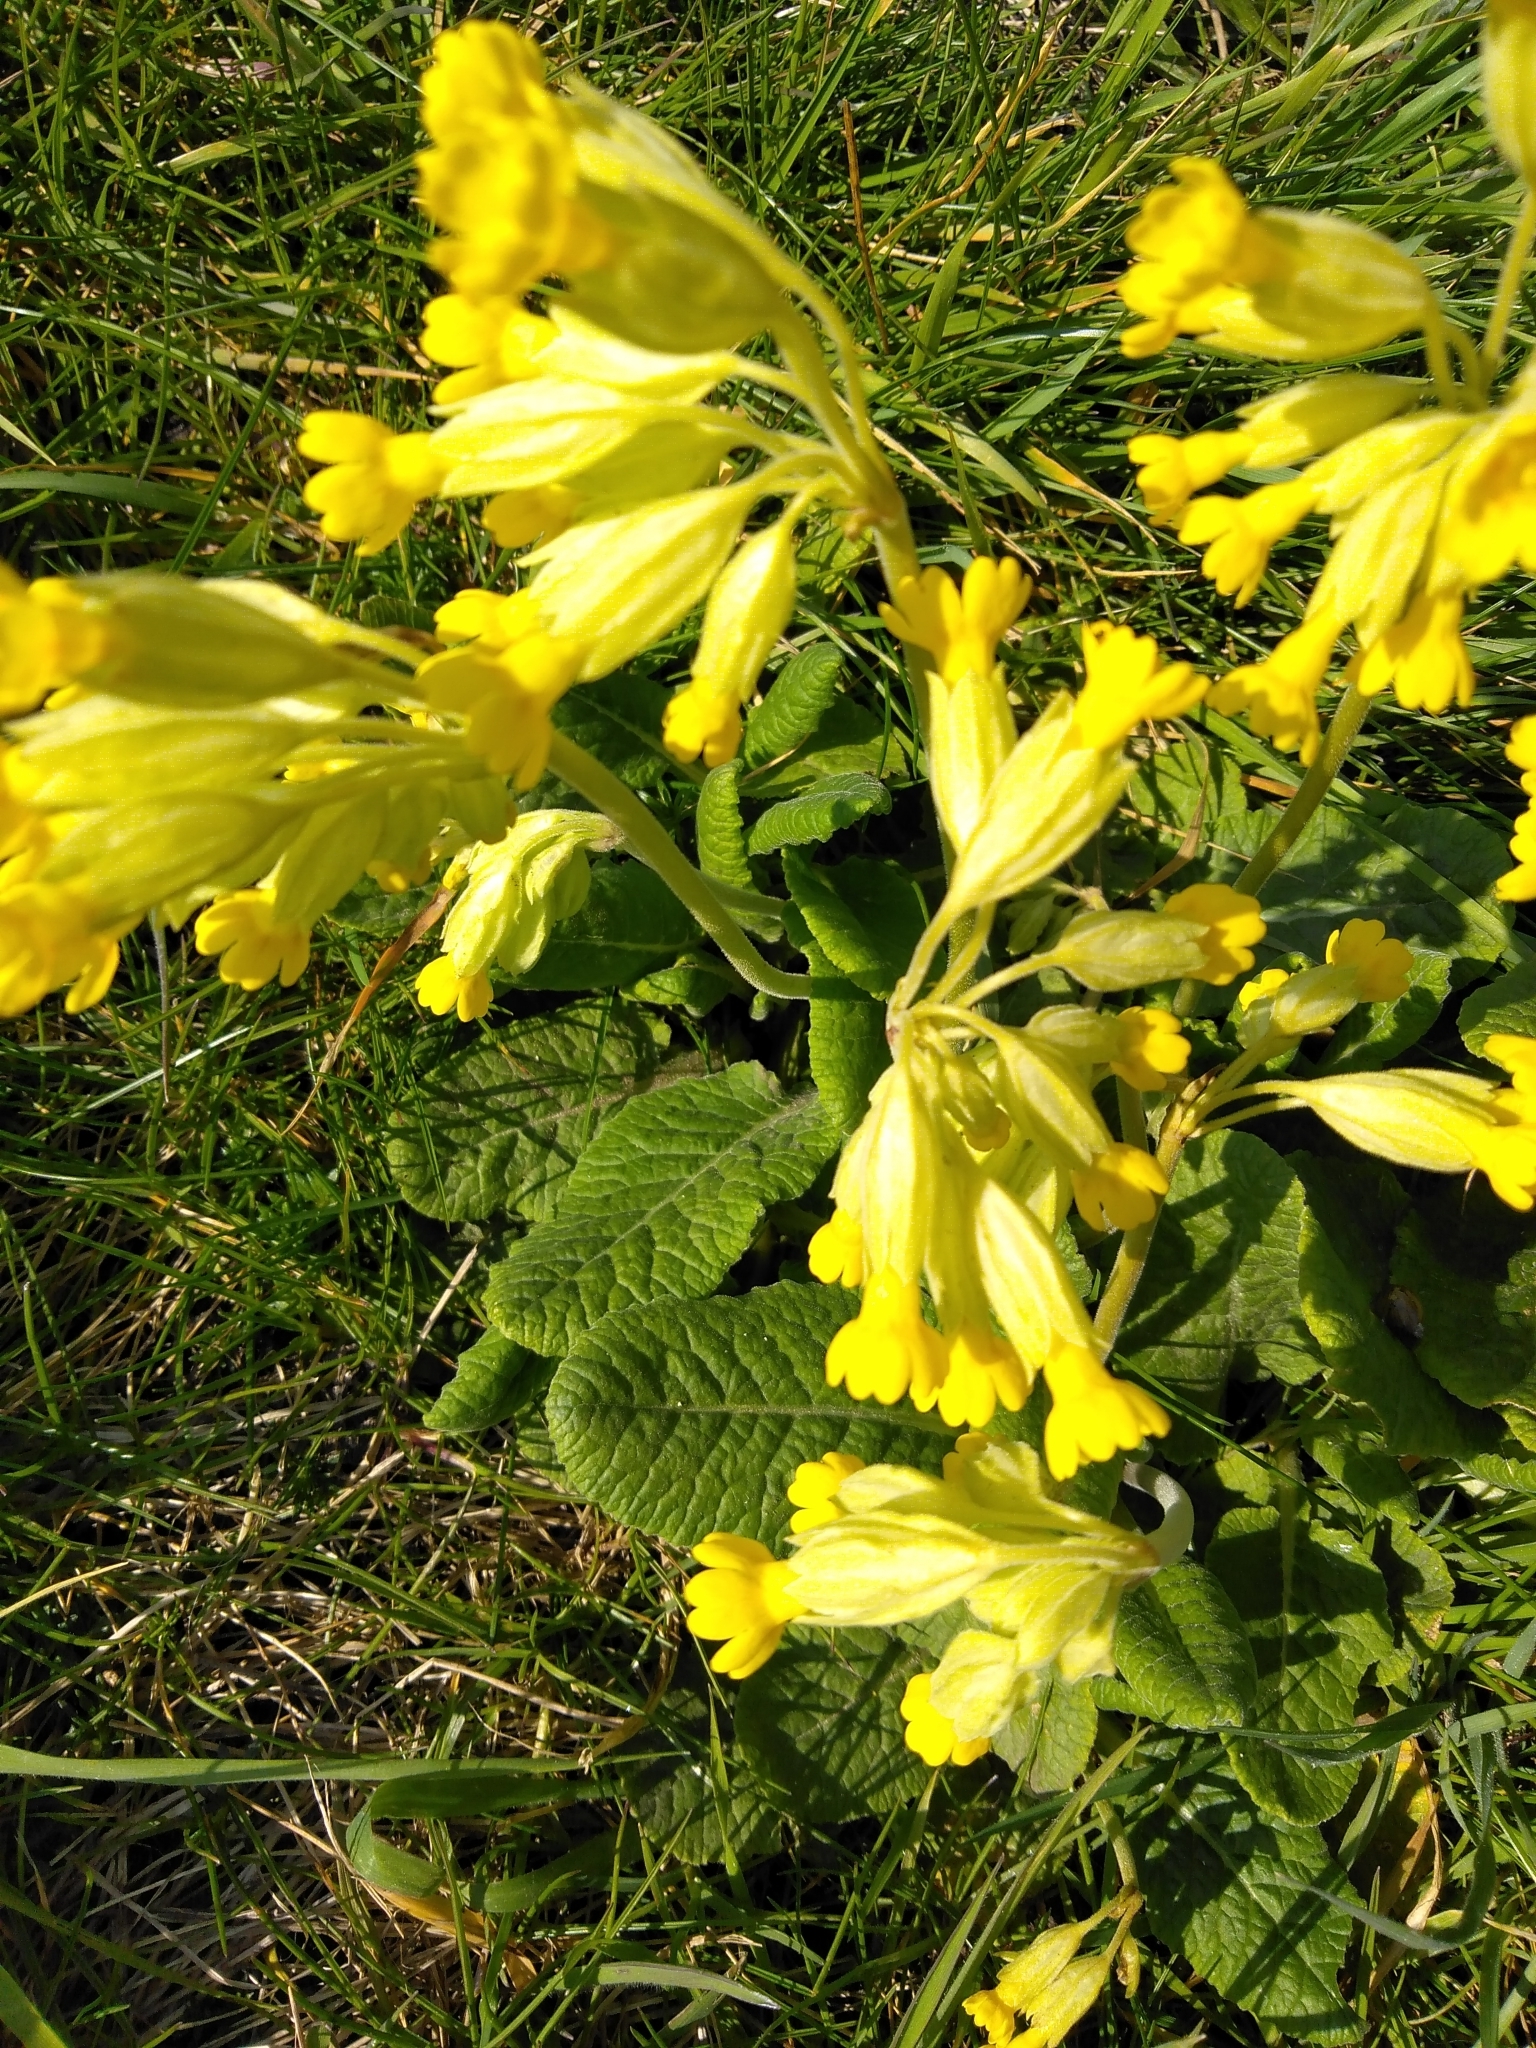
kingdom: Plantae
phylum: Tracheophyta
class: Magnoliopsida
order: Ericales
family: Primulaceae
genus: Primula
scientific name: Primula veris
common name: Cowslip
